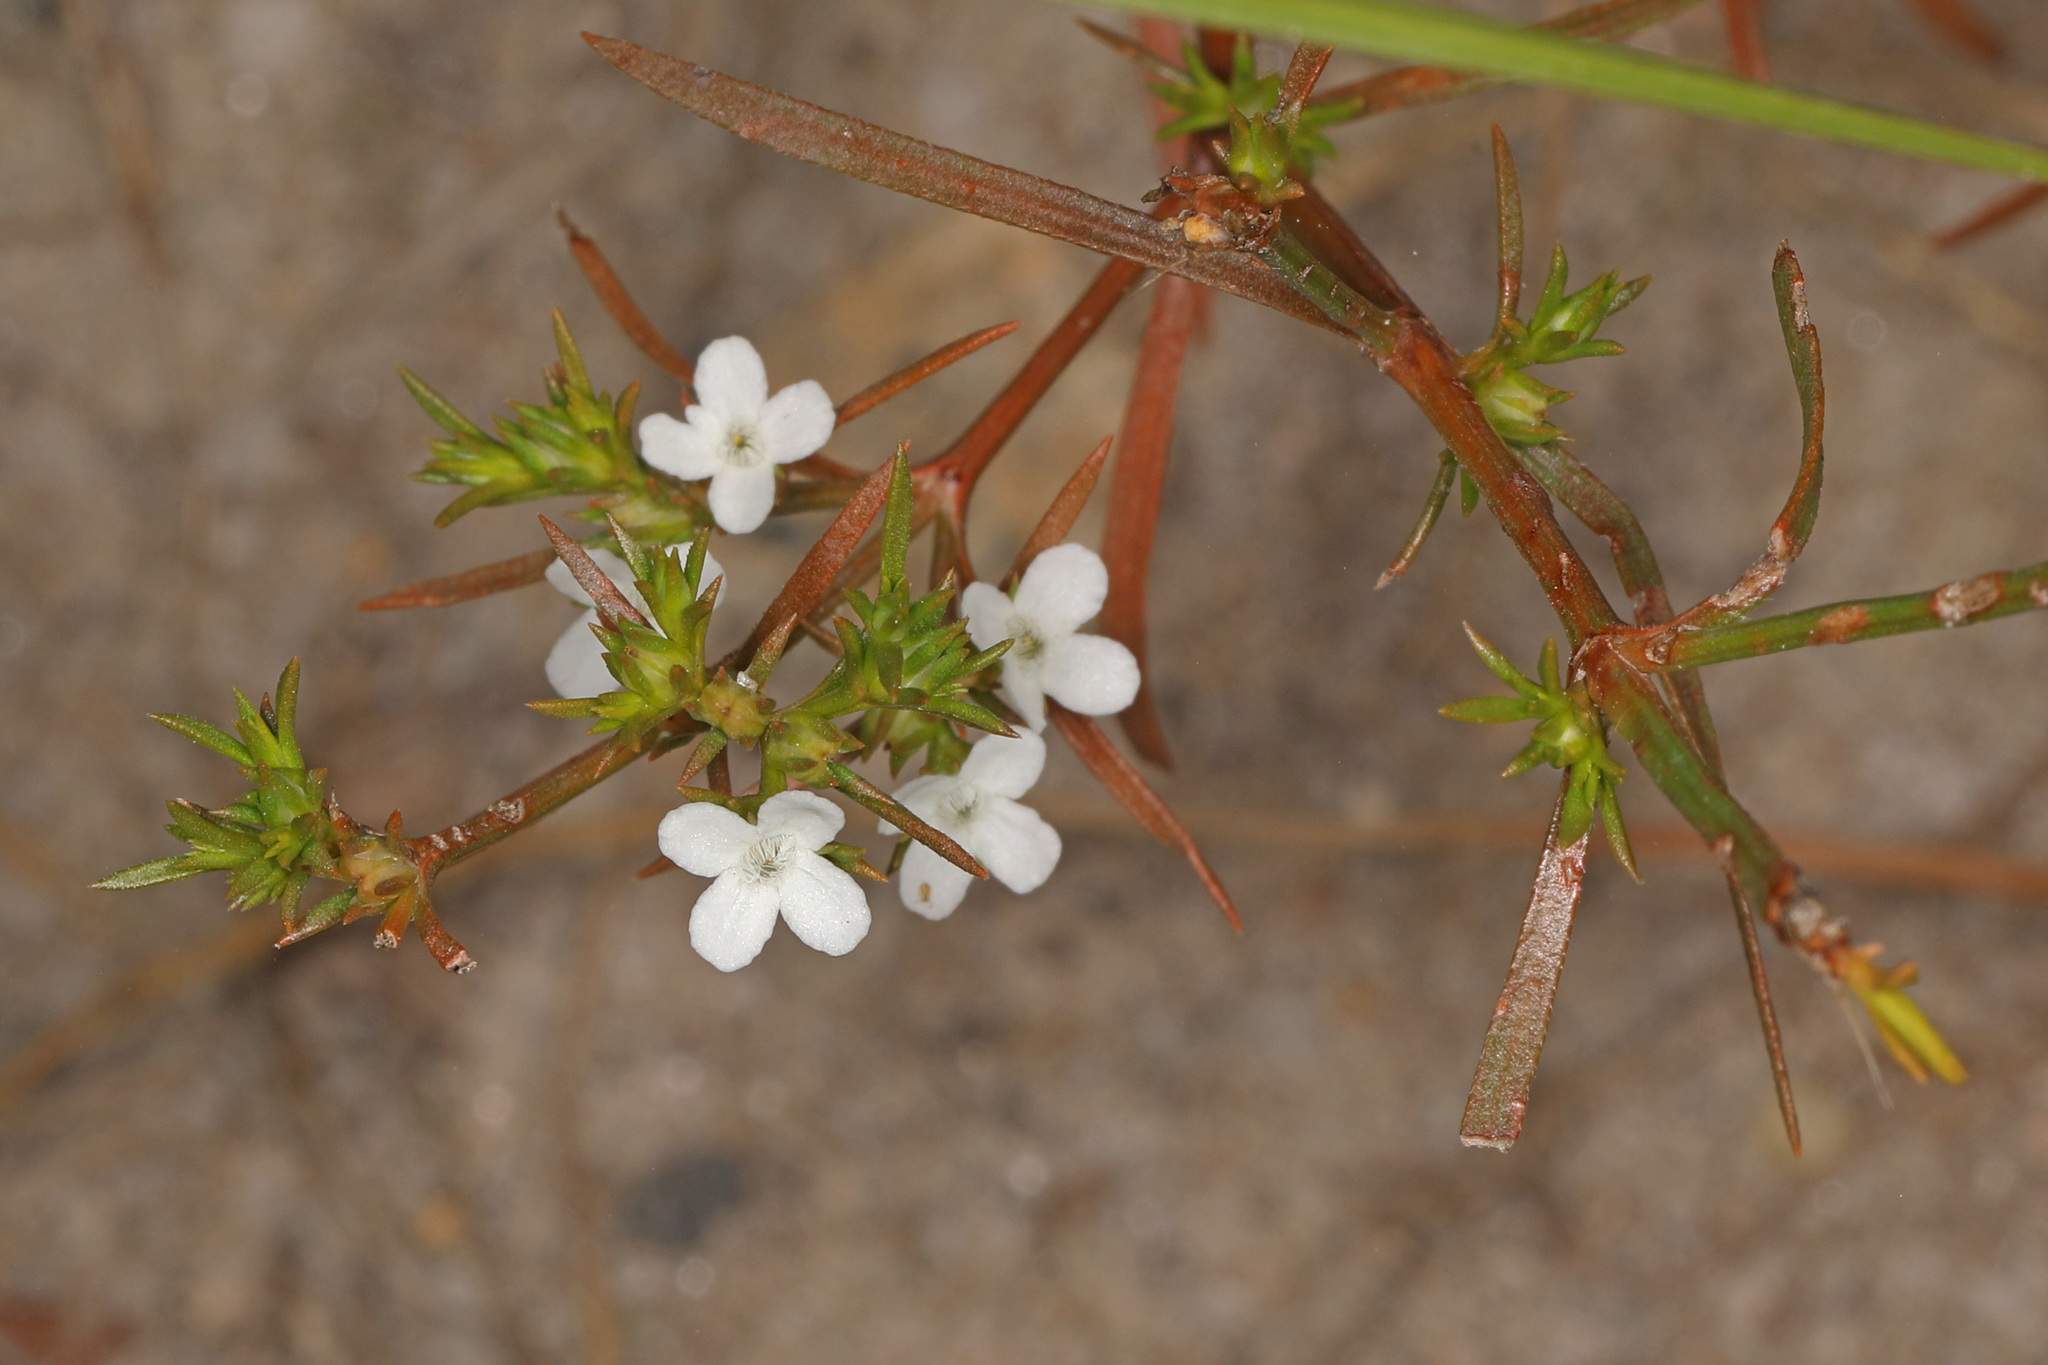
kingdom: Plantae
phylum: Tracheophyta
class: Magnoliopsida
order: Lamiales
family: Tetrachondraceae
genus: Polypremum
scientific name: Polypremum procumbens
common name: Juniper-leaf
